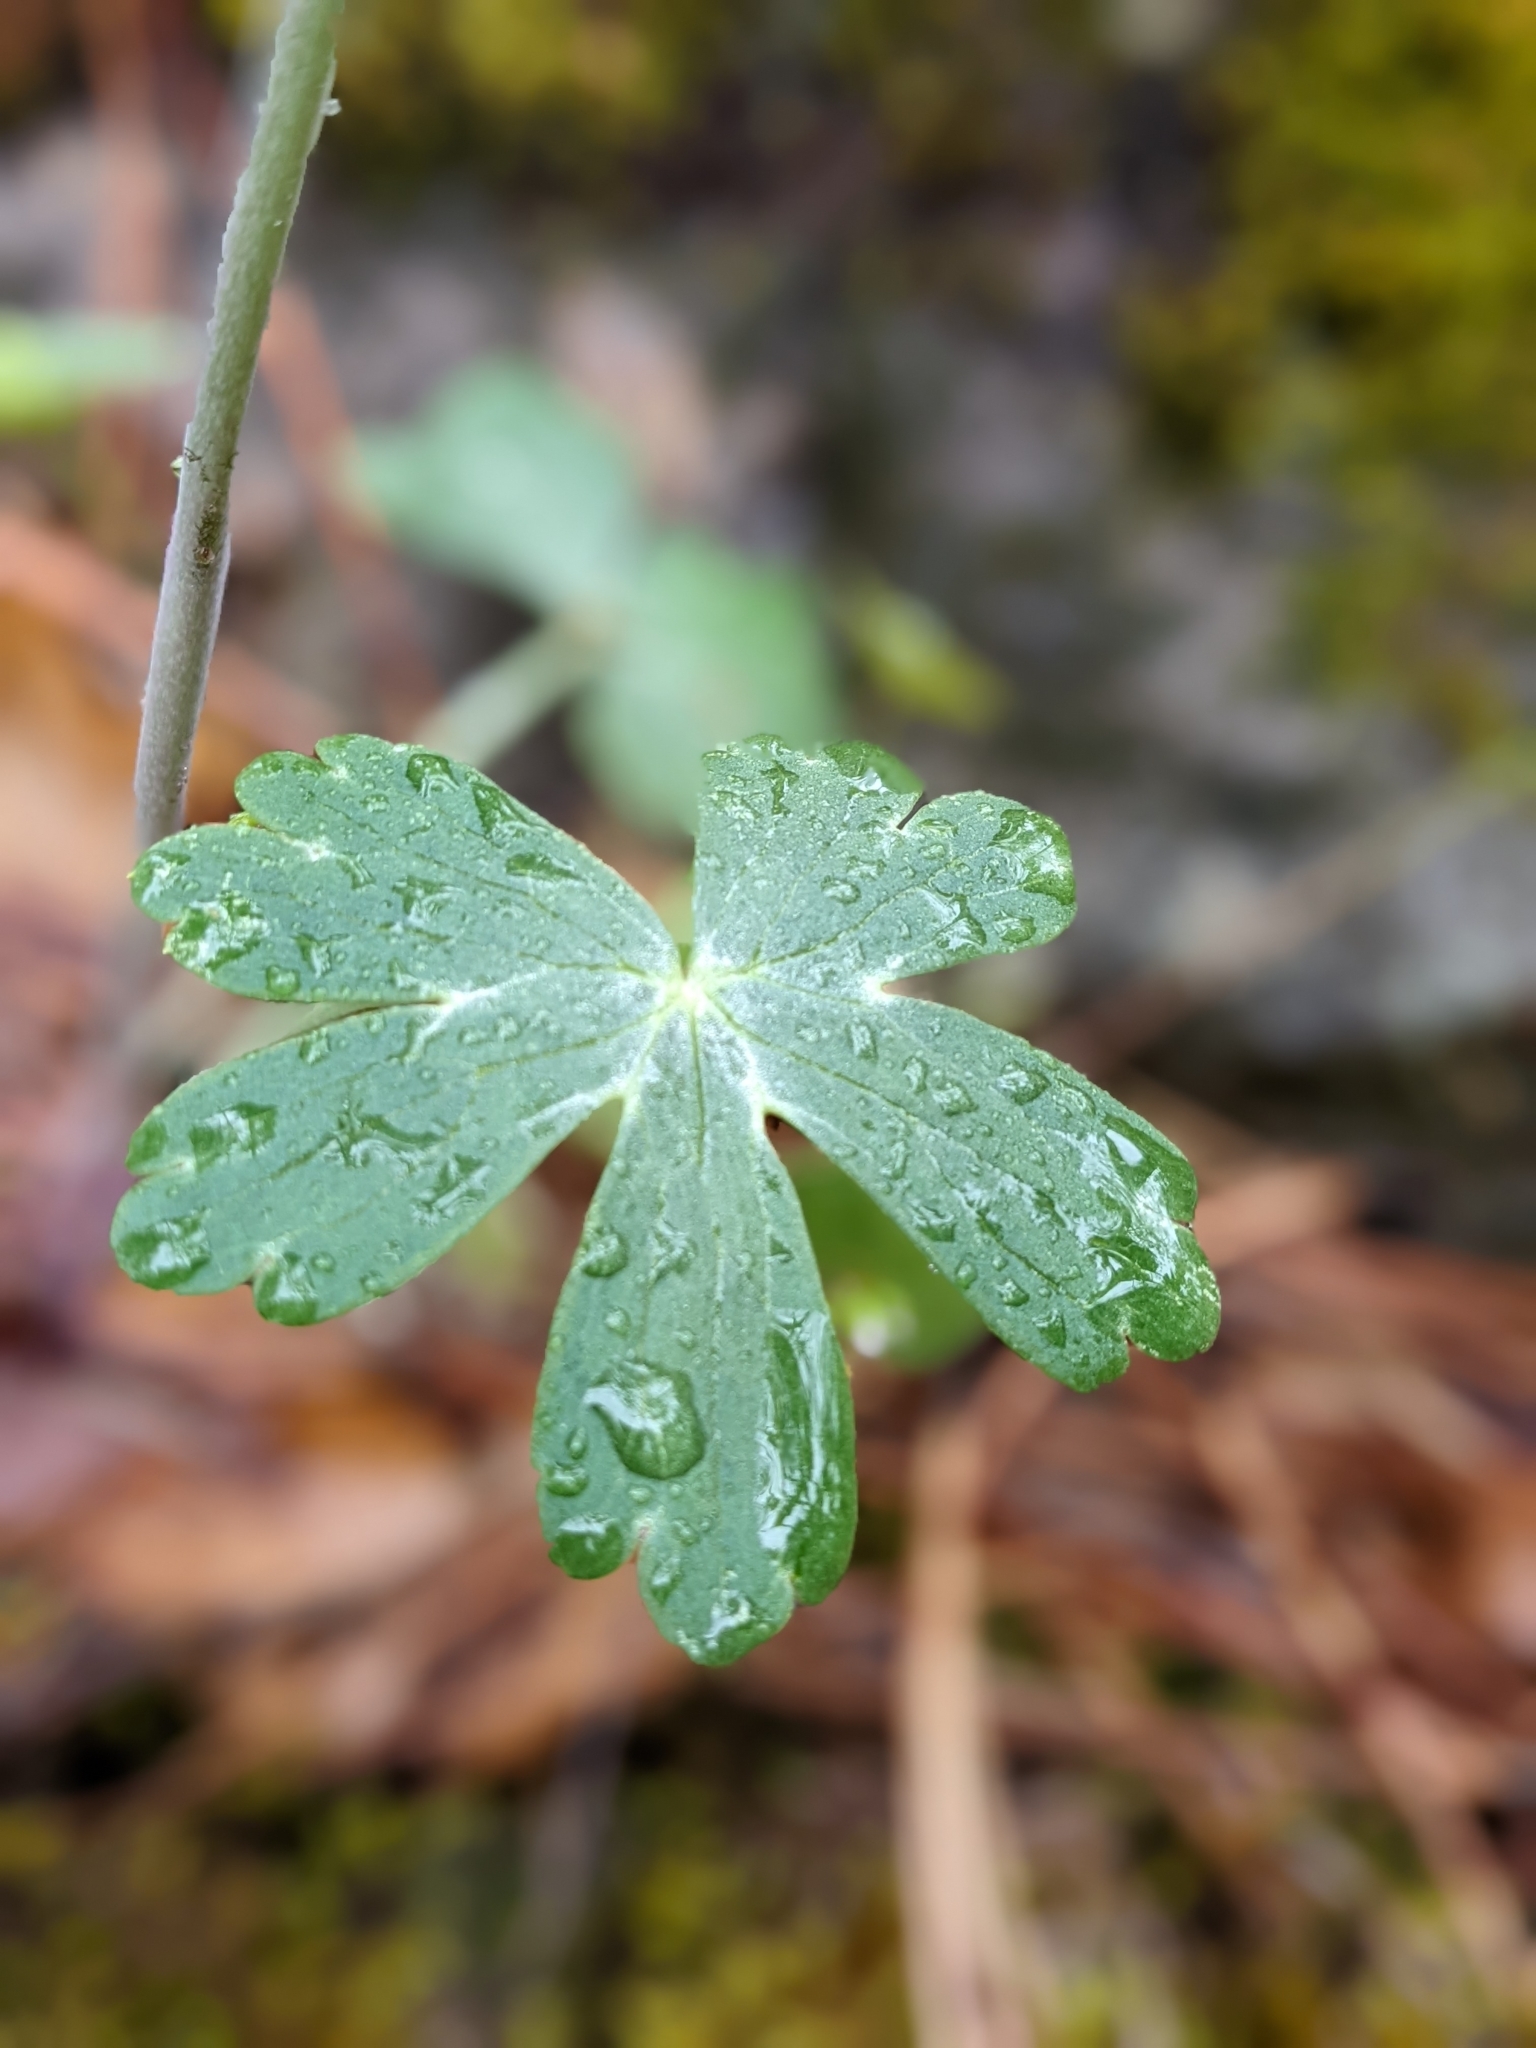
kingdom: Plantae
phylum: Tracheophyta
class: Magnoliopsida
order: Ranunculales
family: Ranunculaceae
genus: Delphinium
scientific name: Delphinium nudicaule
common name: Red larkspur
